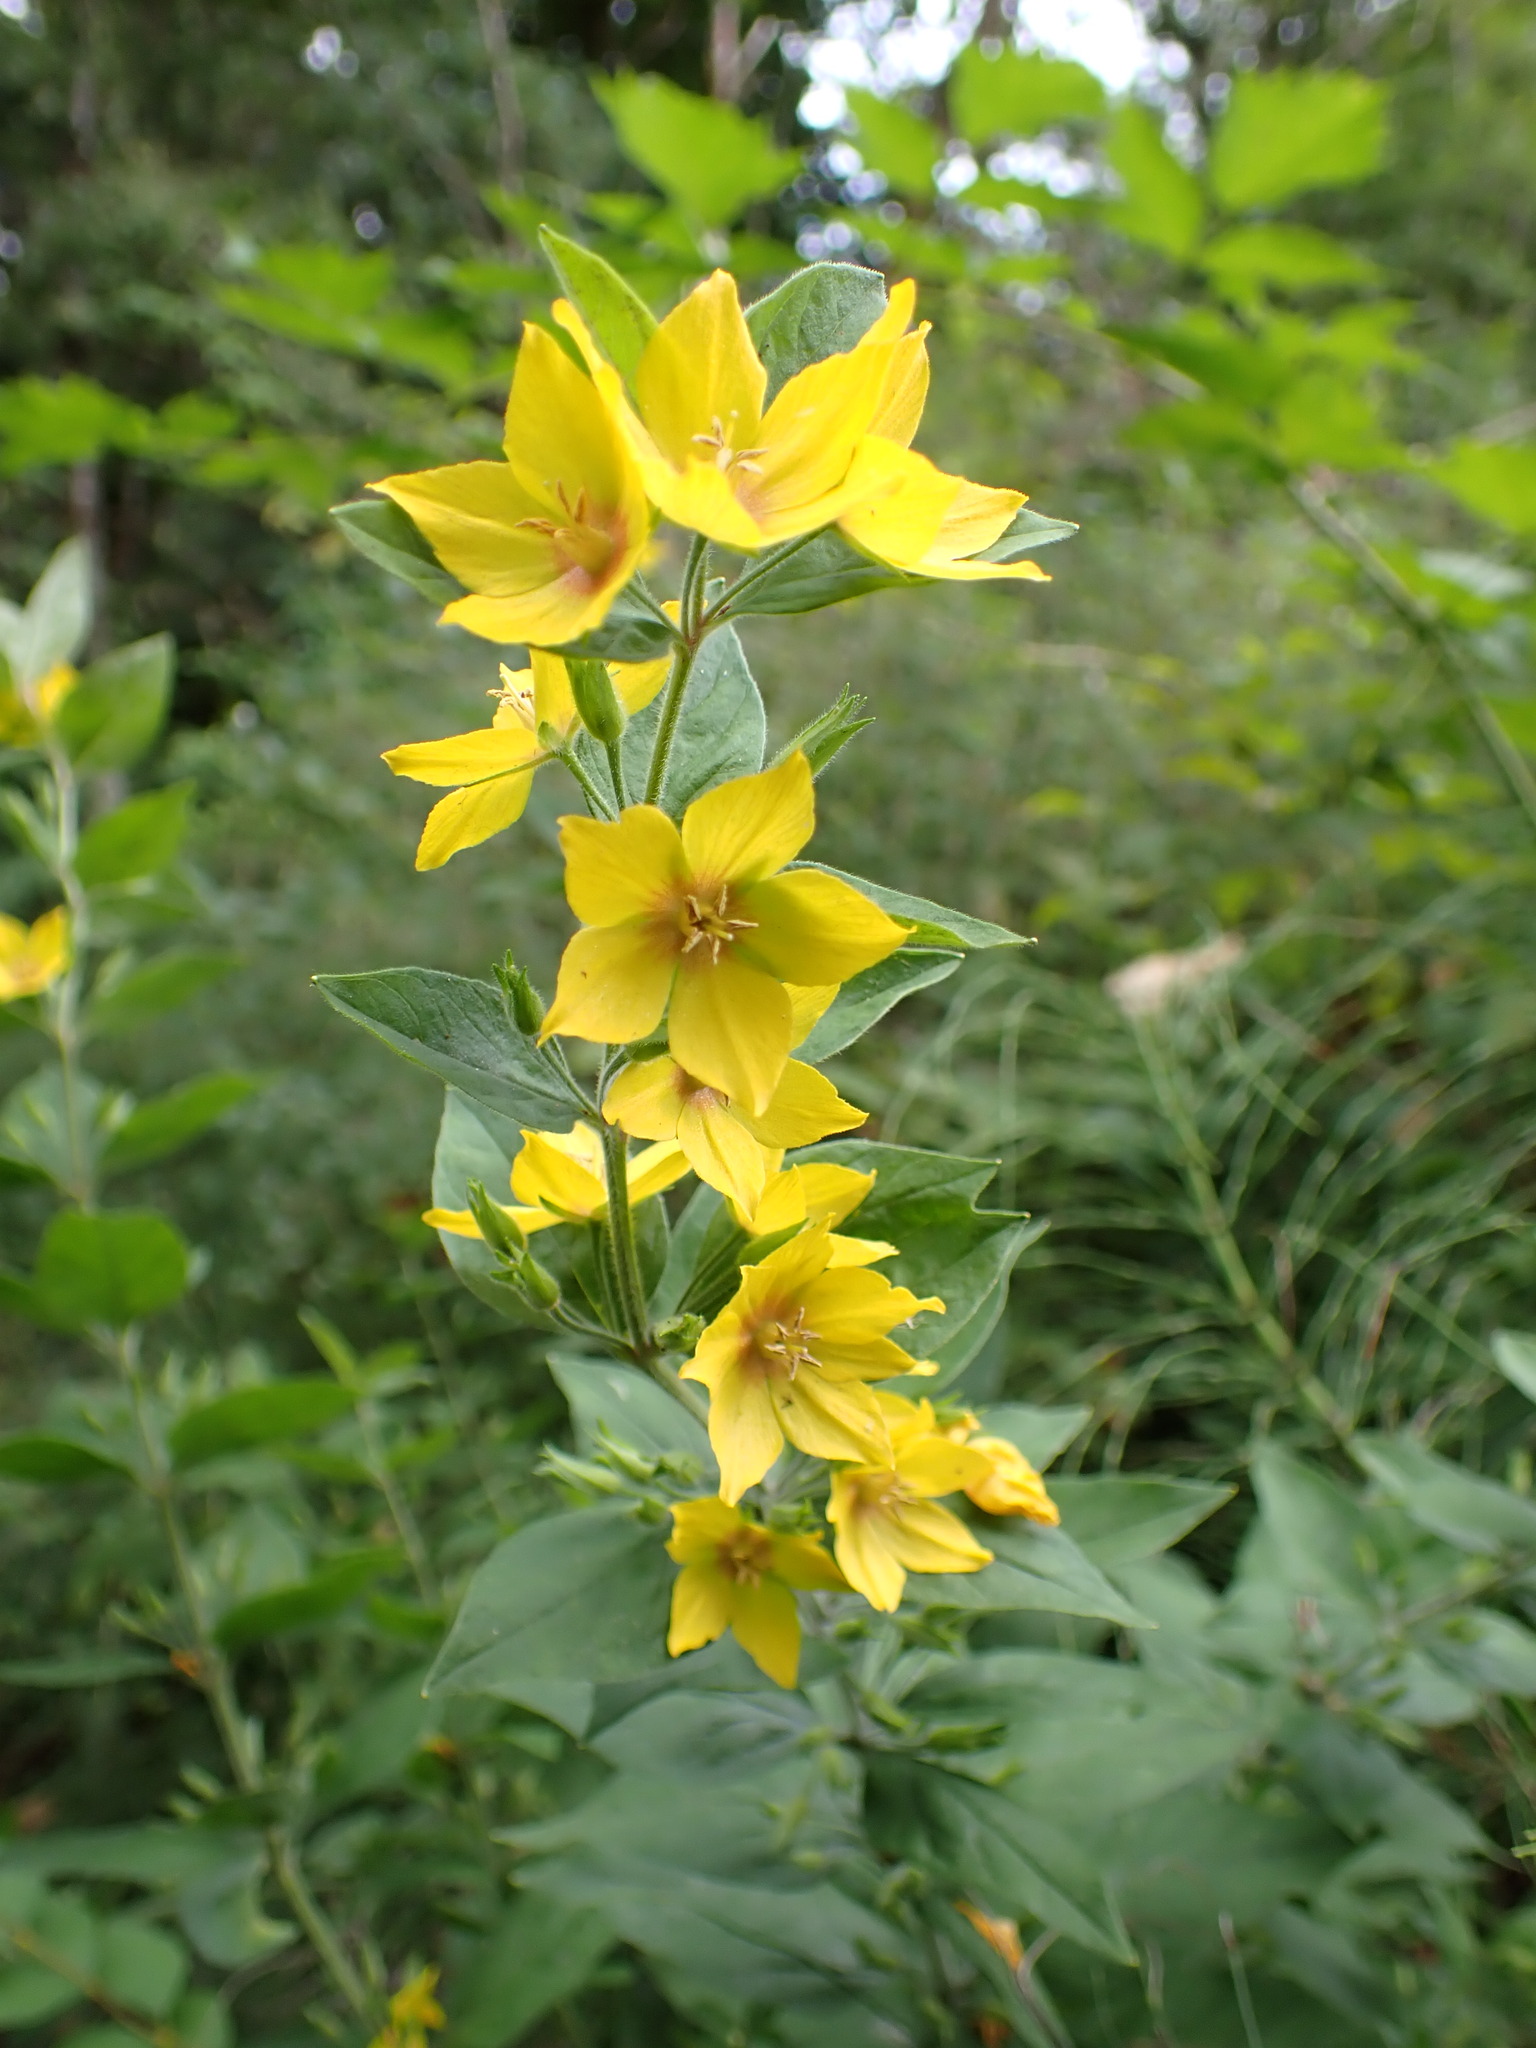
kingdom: Plantae
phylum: Tracheophyta
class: Magnoliopsida
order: Ericales
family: Primulaceae
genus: Lysimachia
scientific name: Lysimachia punctata
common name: Dotted loosestrife
